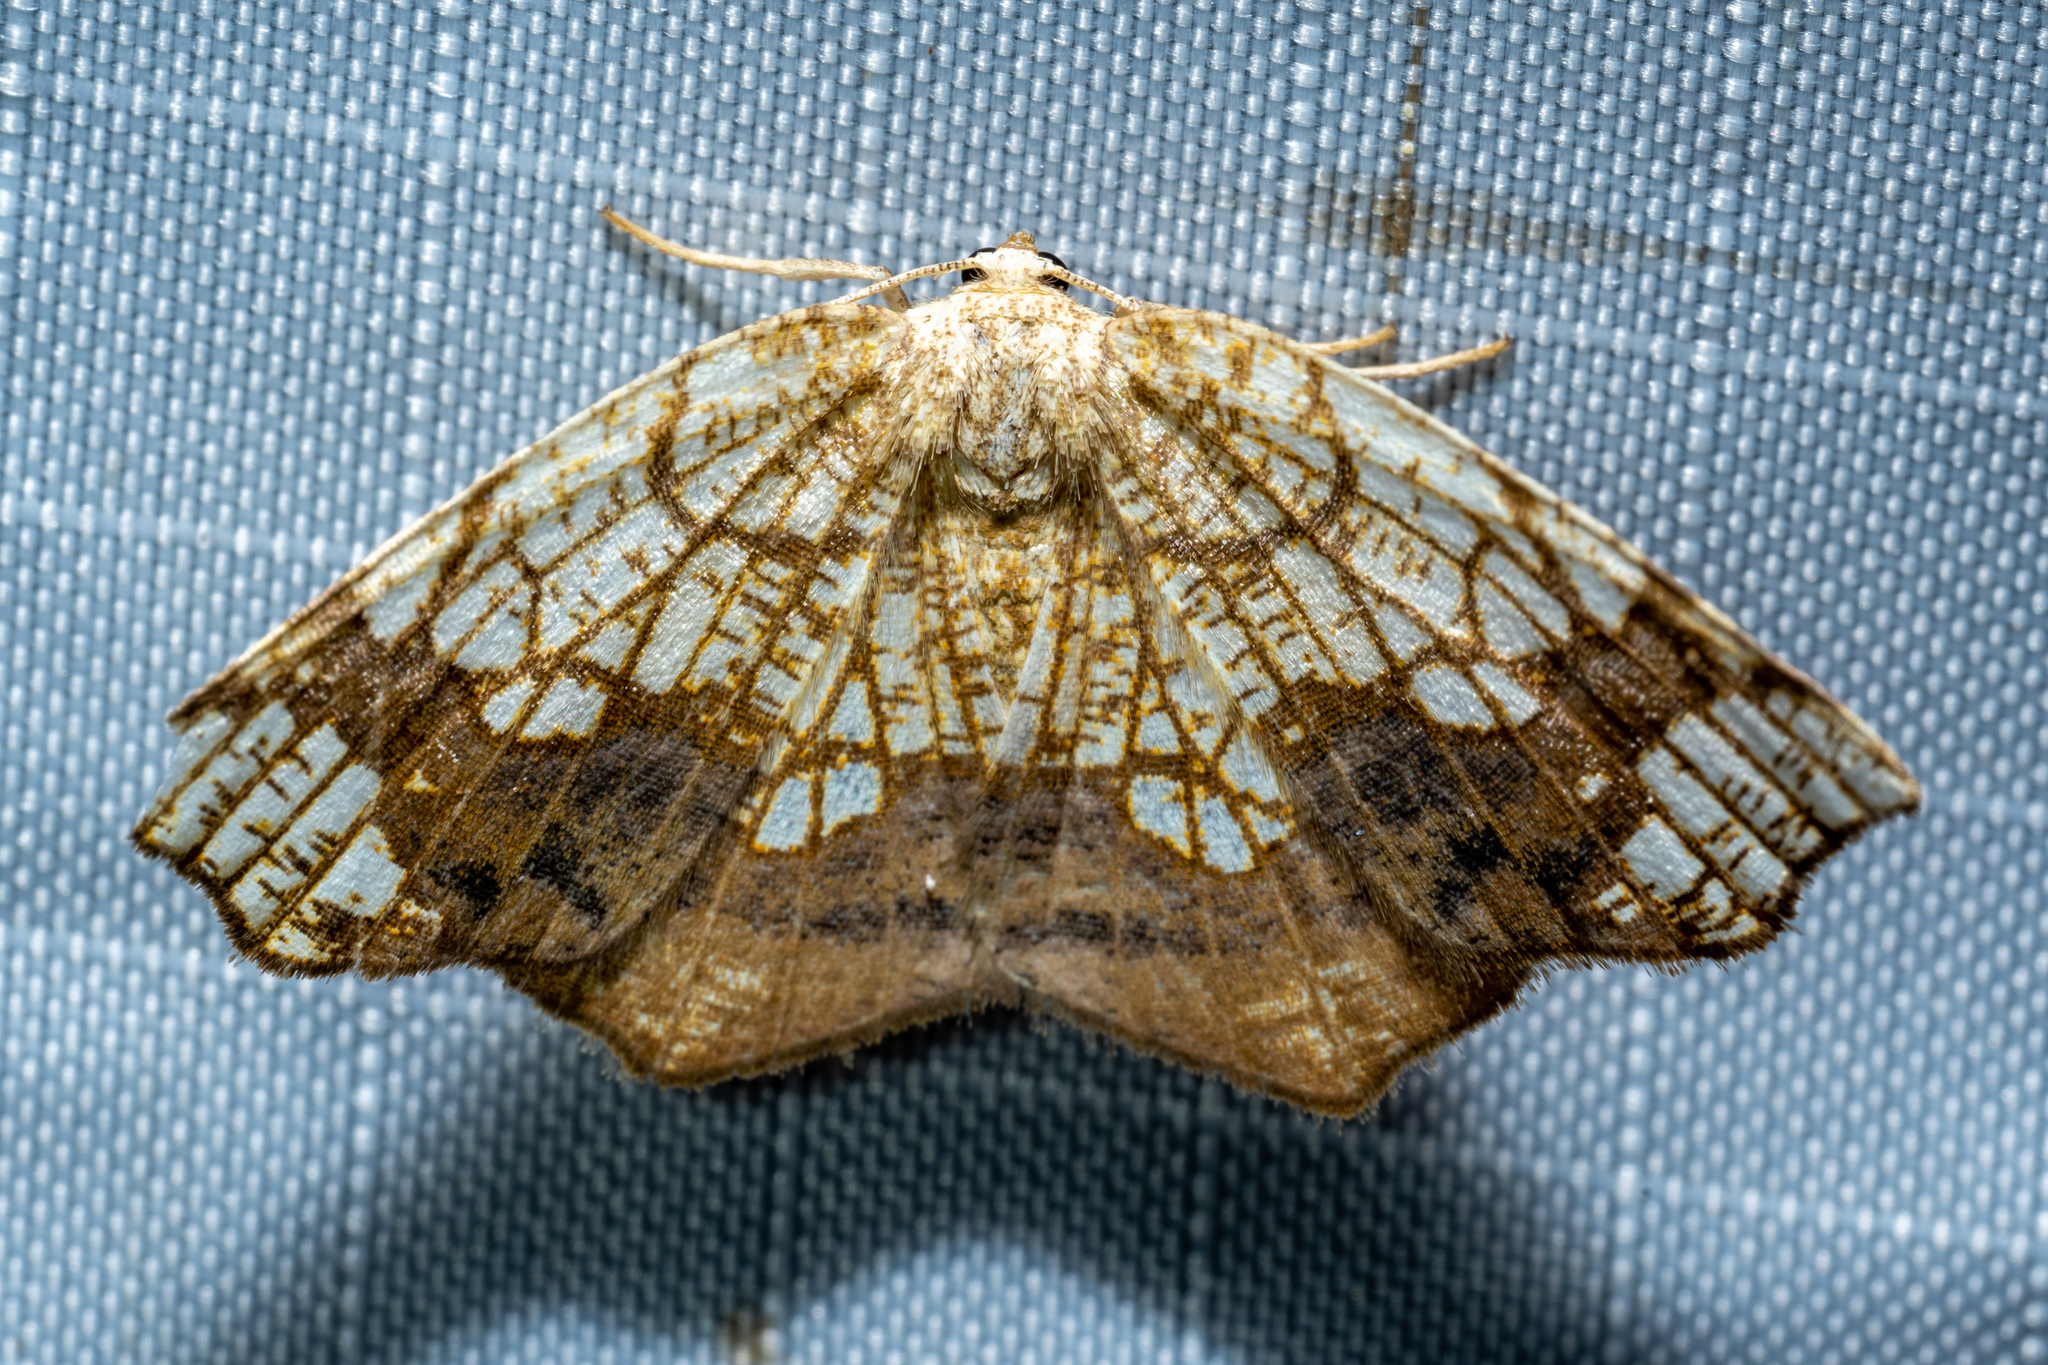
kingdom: Animalia
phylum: Arthropoda
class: Insecta
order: Lepidoptera
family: Geometridae
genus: Nematocampa
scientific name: Nematocampa resistaria
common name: Horned spanworm moth
